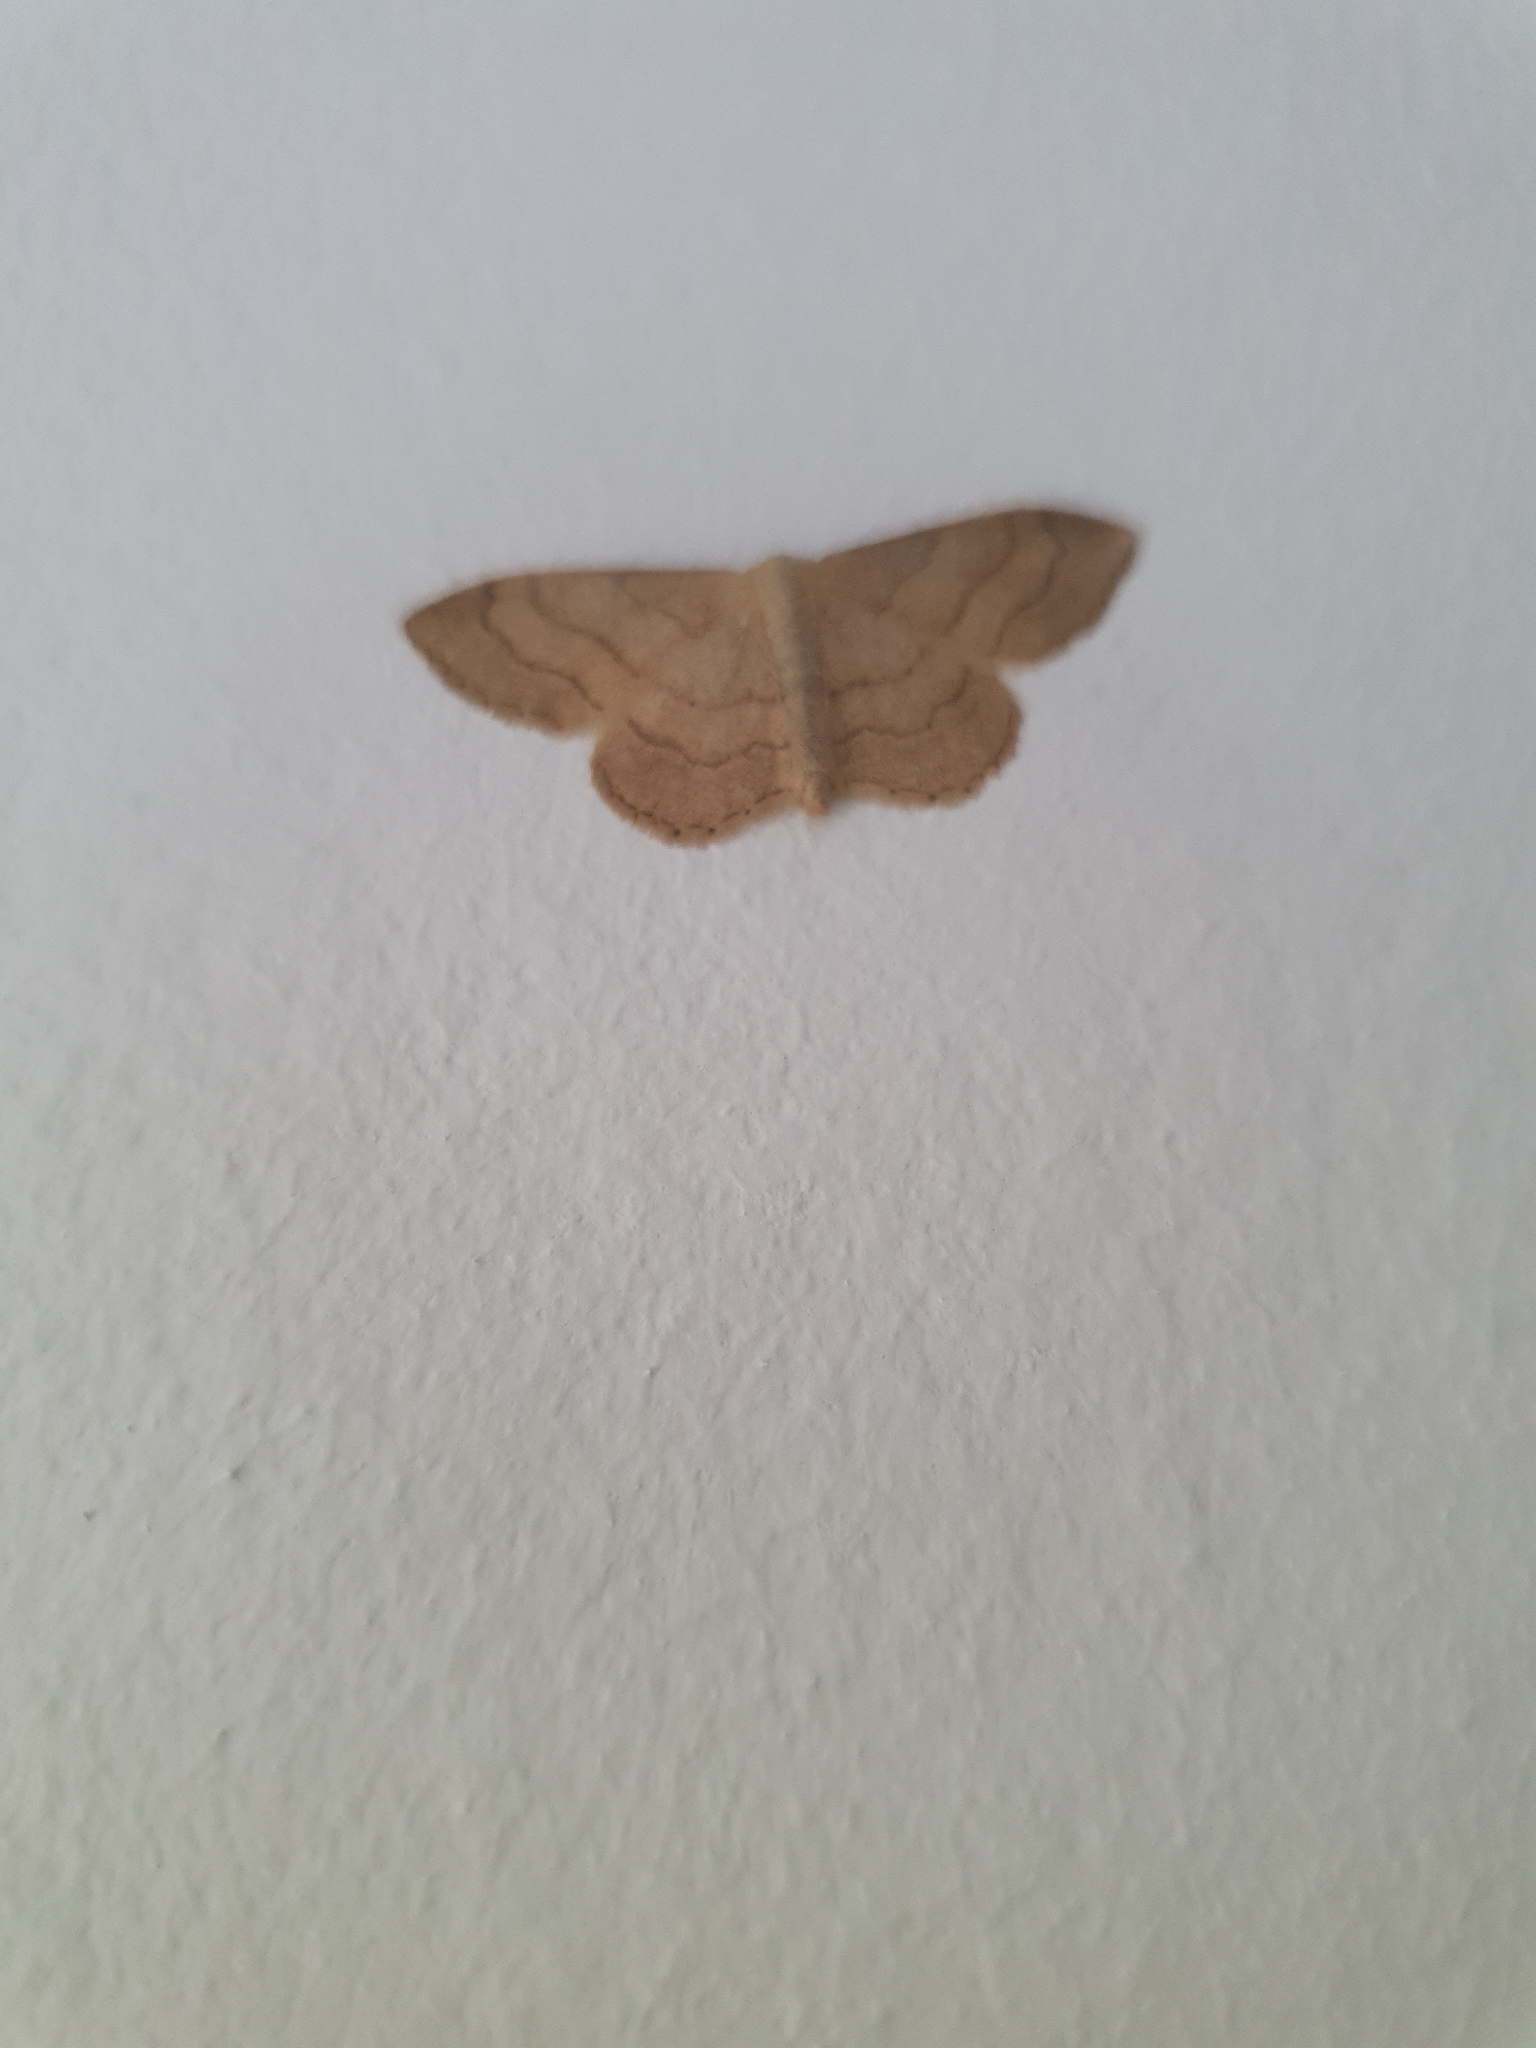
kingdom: Animalia
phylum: Arthropoda
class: Insecta
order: Lepidoptera
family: Geometridae
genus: Idaea
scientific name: Idaea aversata
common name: Riband wave
